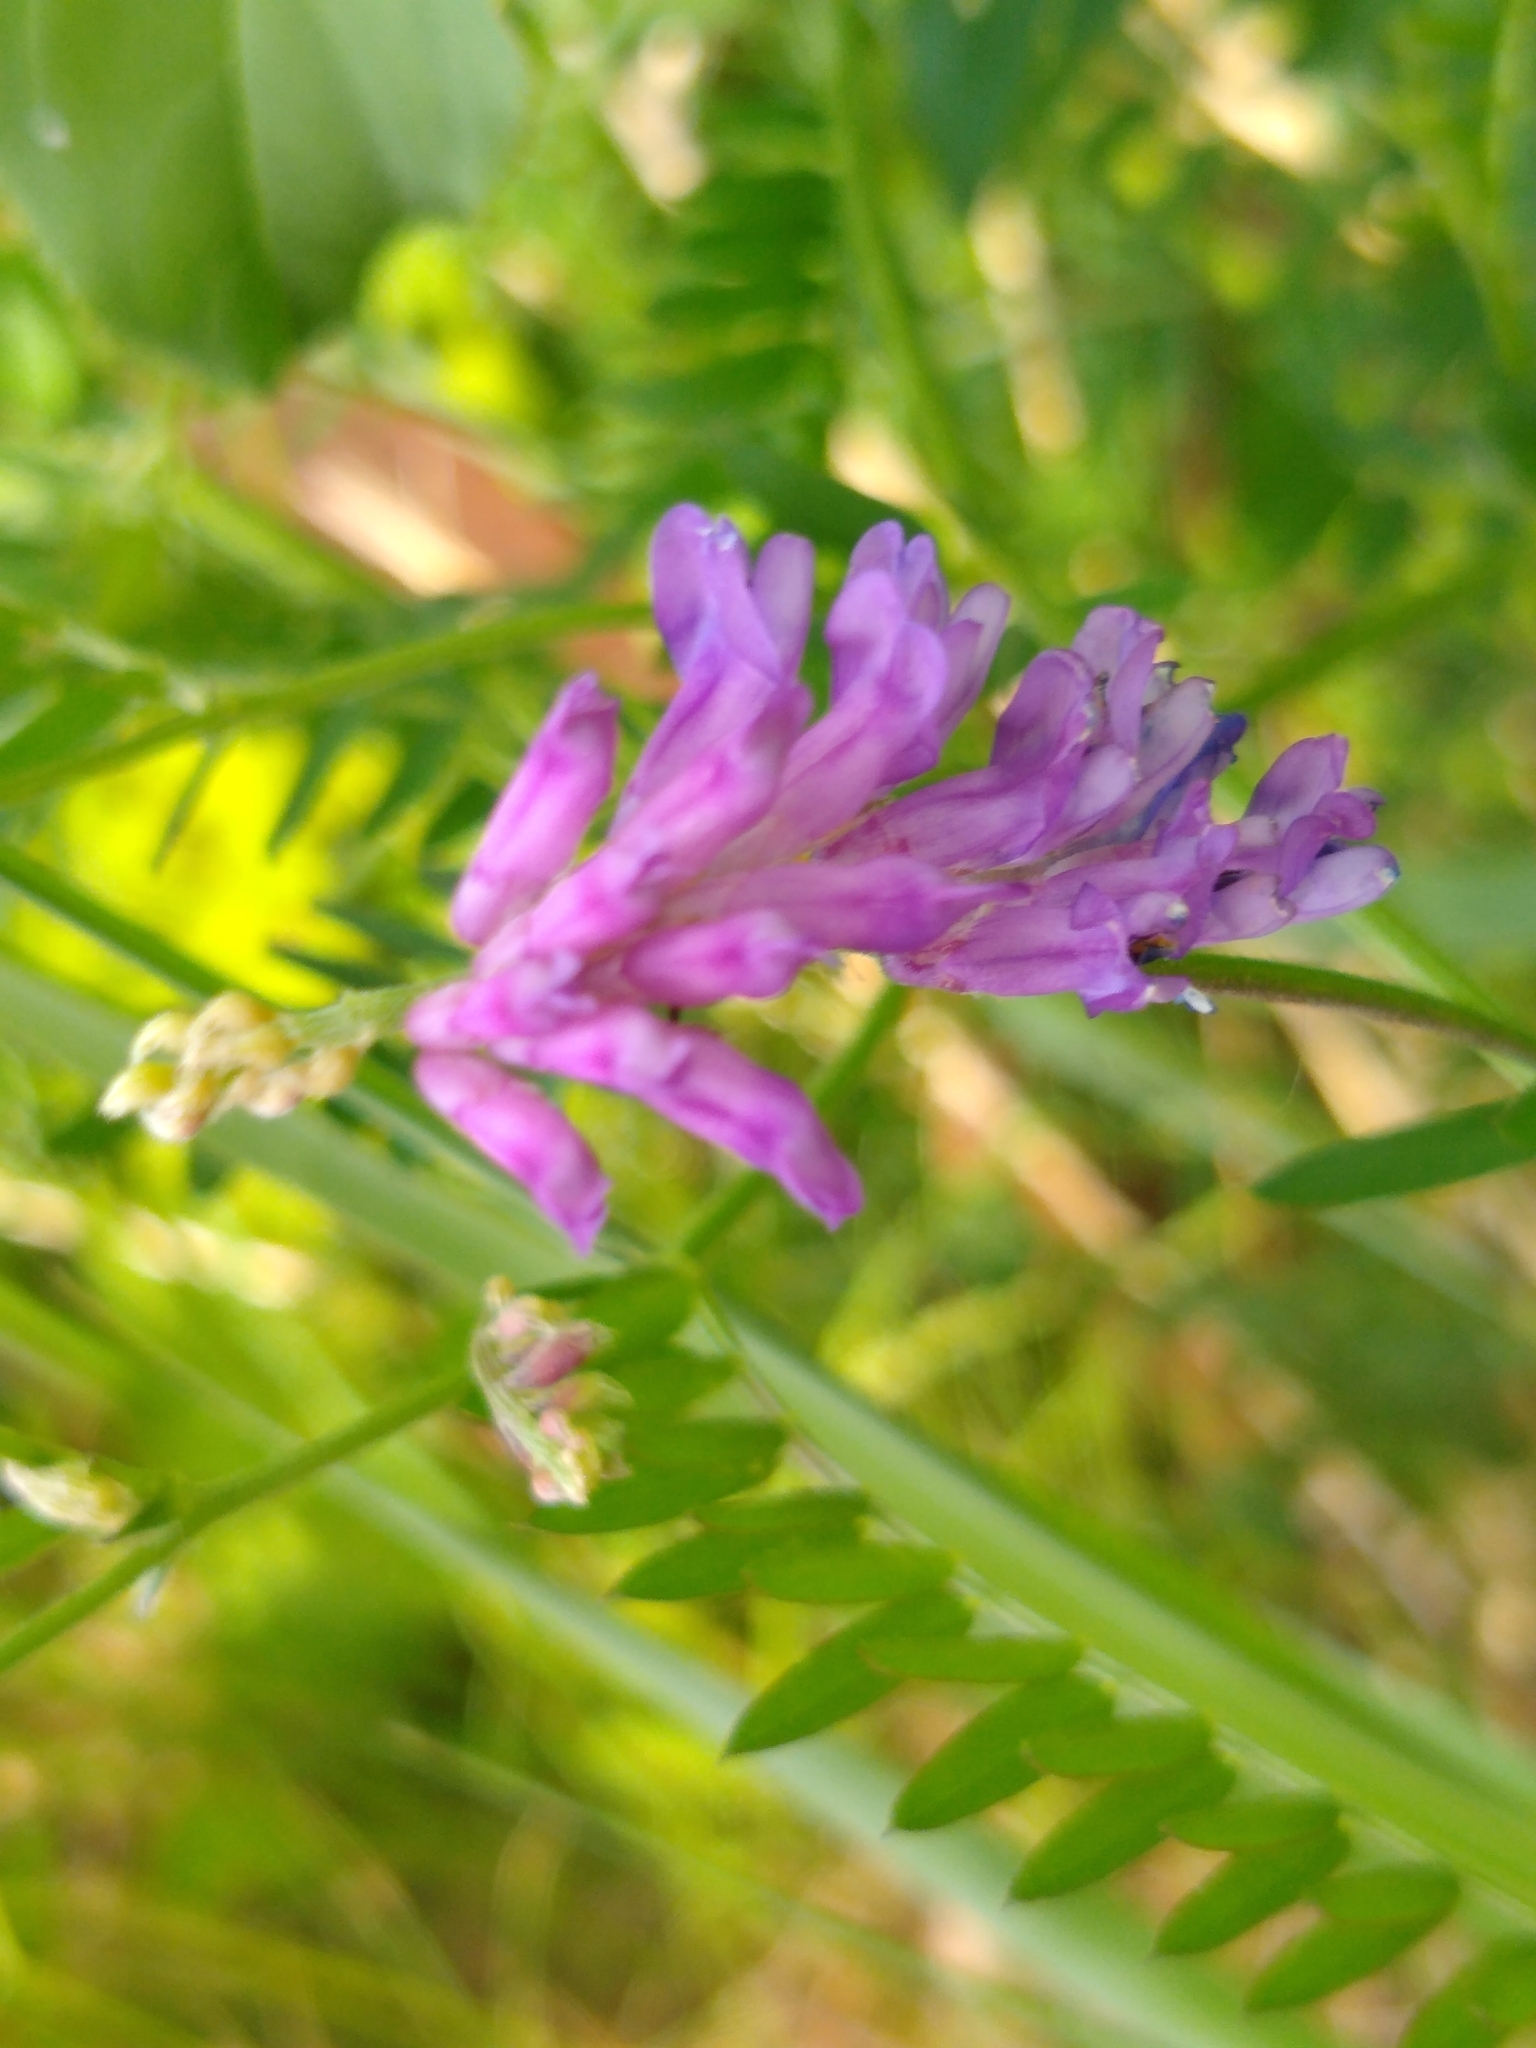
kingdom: Plantae
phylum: Tracheophyta
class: Magnoliopsida
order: Fabales
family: Fabaceae
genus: Vicia
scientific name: Vicia cracca
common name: Bird vetch
